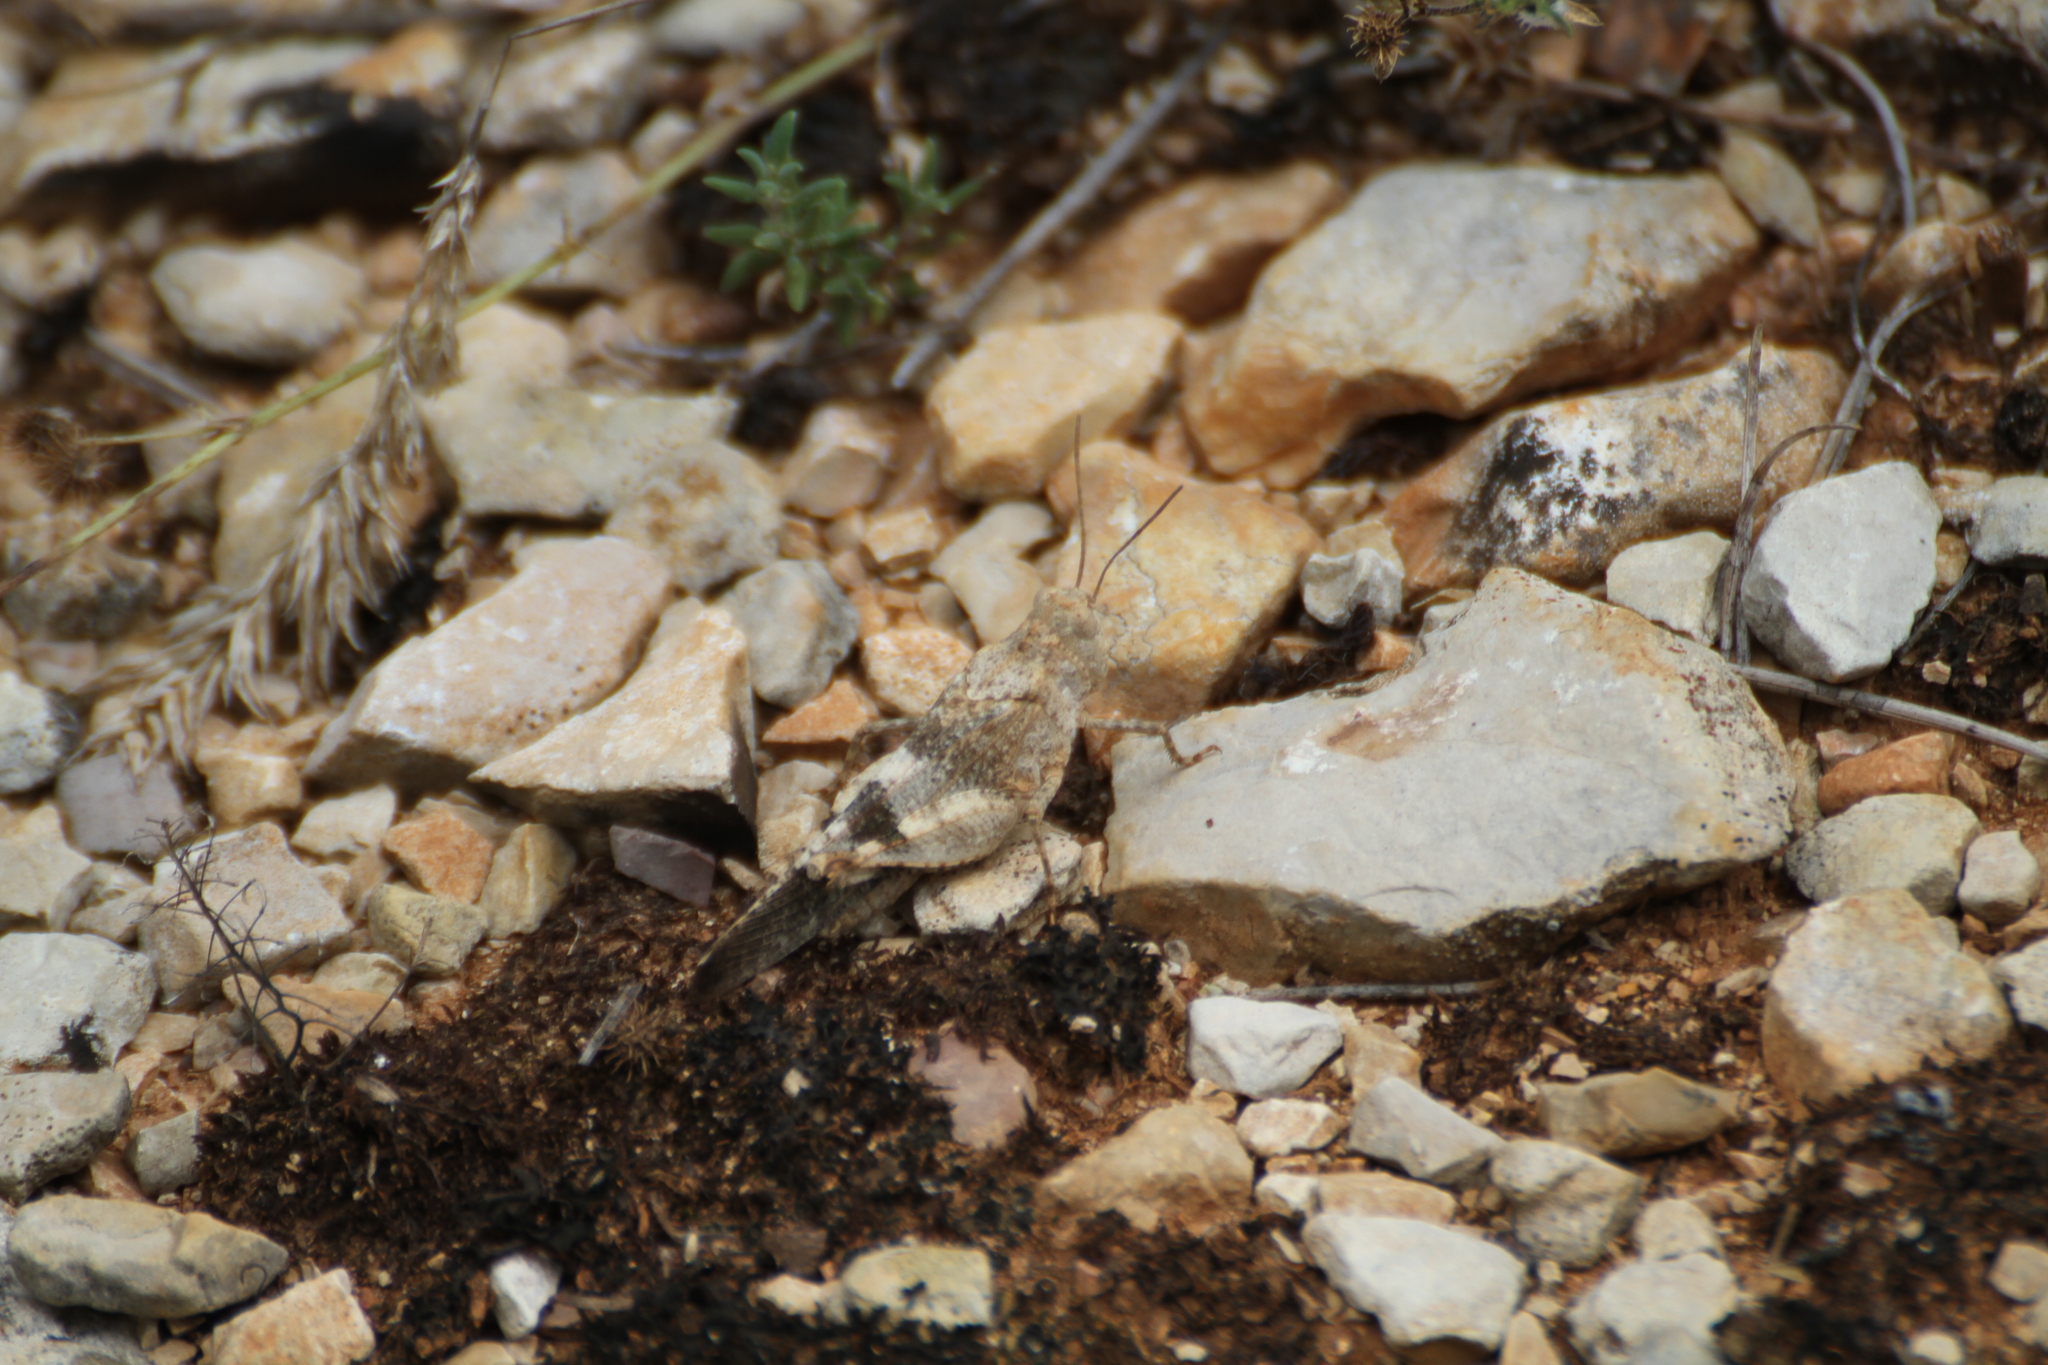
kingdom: Animalia
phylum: Arthropoda
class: Insecta
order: Orthoptera
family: Acrididae
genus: Oedipoda
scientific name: Oedipoda germanica
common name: Red band-winged grasshopper
